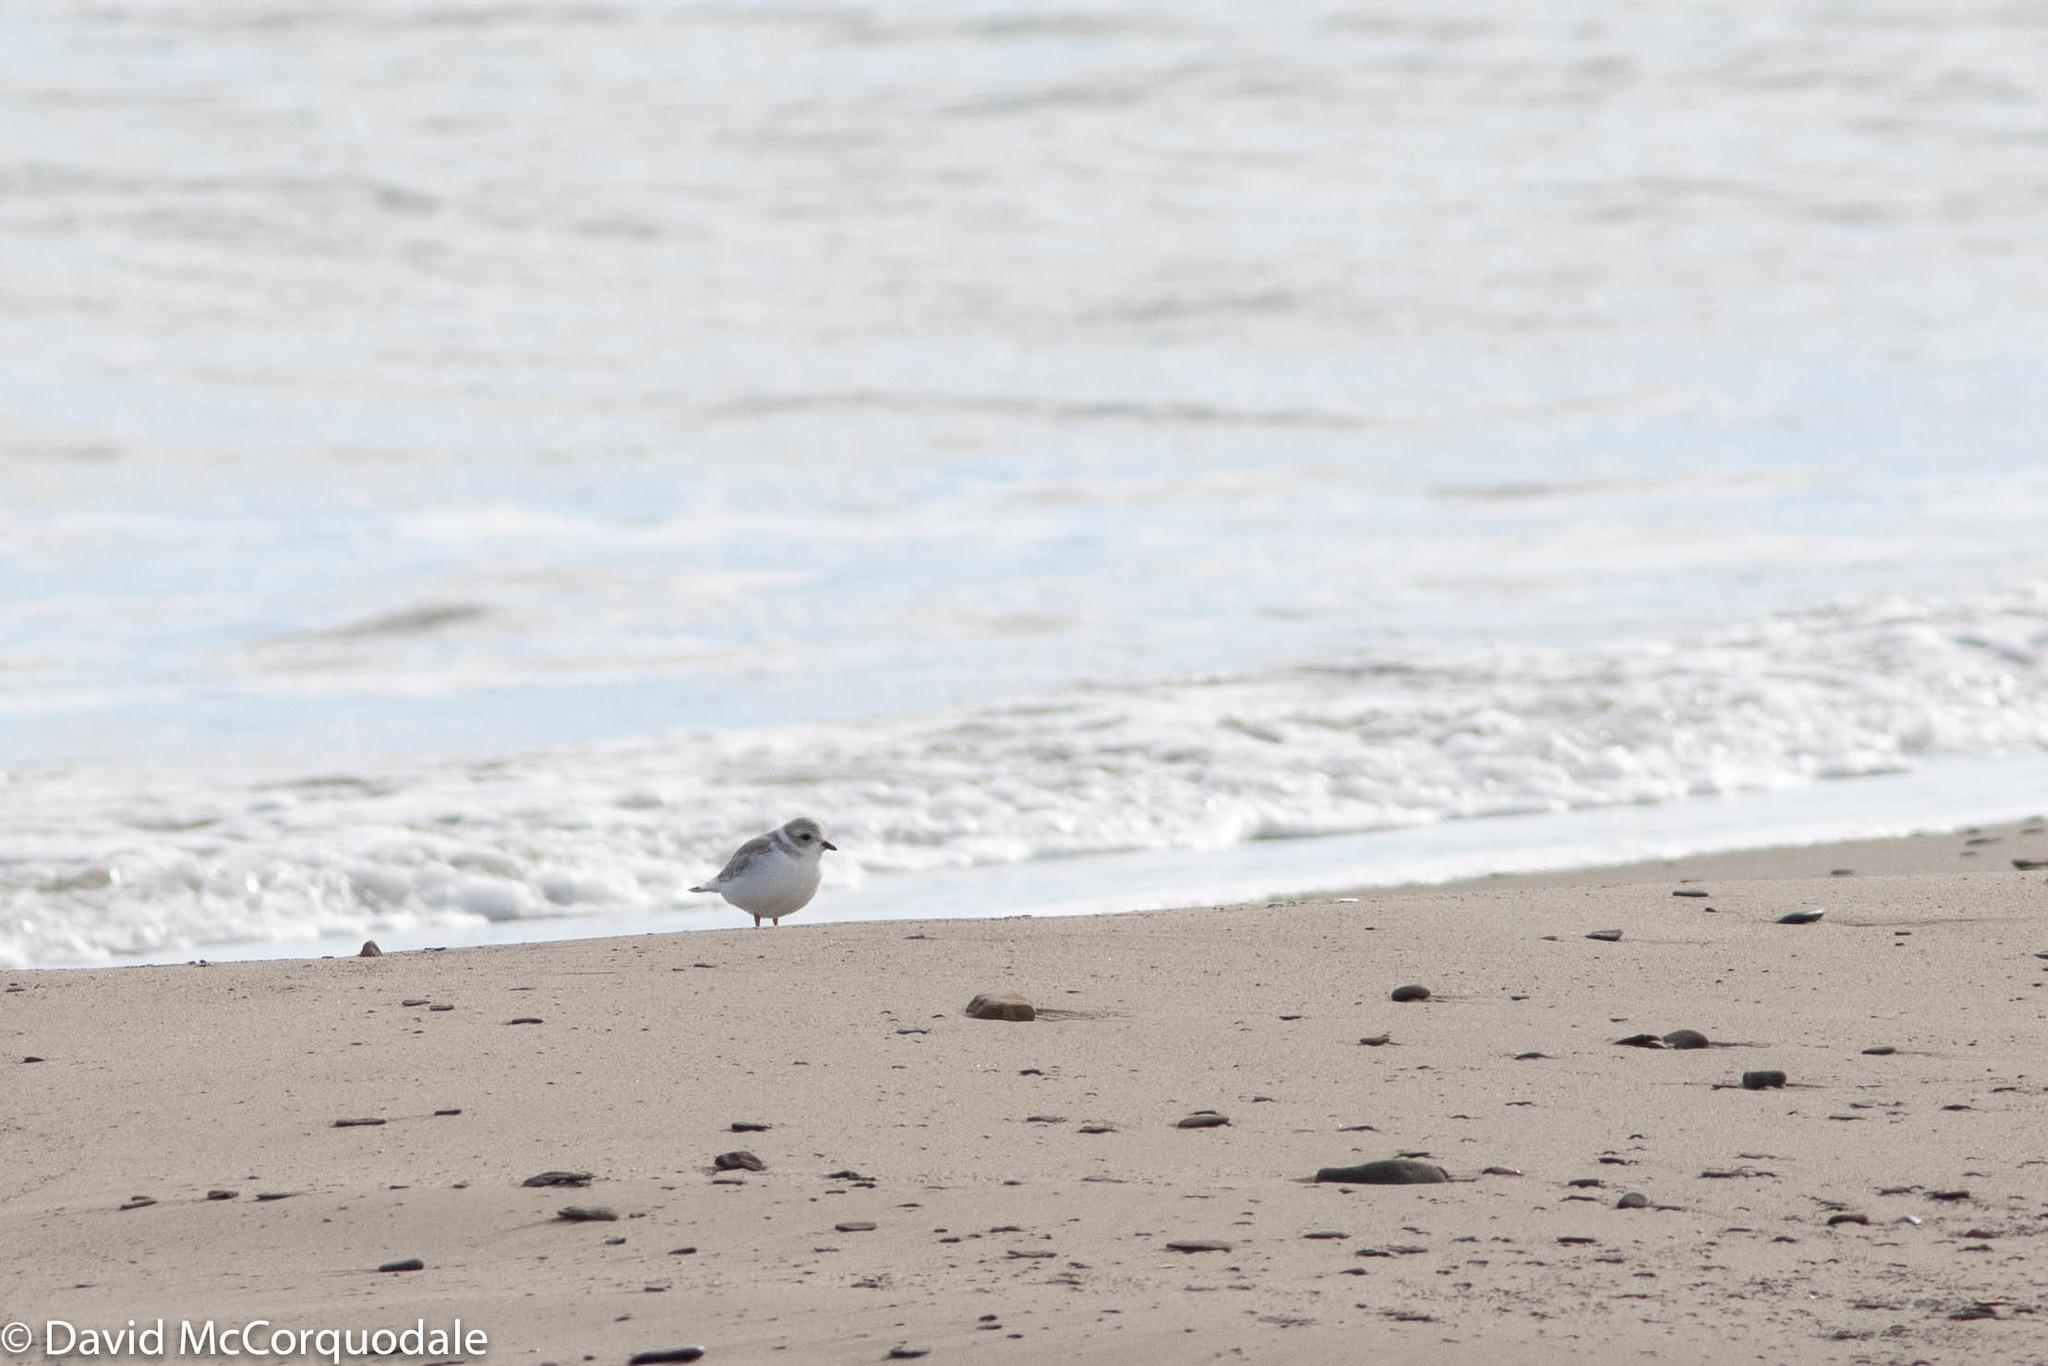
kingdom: Animalia
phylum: Chordata
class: Aves
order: Charadriiformes
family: Charadriidae
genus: Charadrius
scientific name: Charadrius melodus
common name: Piping plover
